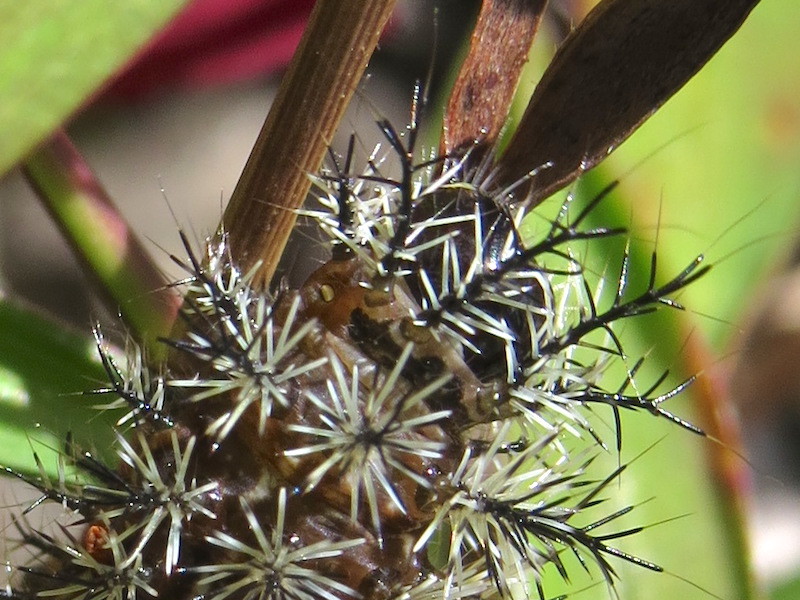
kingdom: Animalia
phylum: Arthropoda
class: Insecta
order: Lepidoptera
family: Saturniidae
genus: Hemileuca
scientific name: Hemileuca maia
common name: Eastern buckmoth
